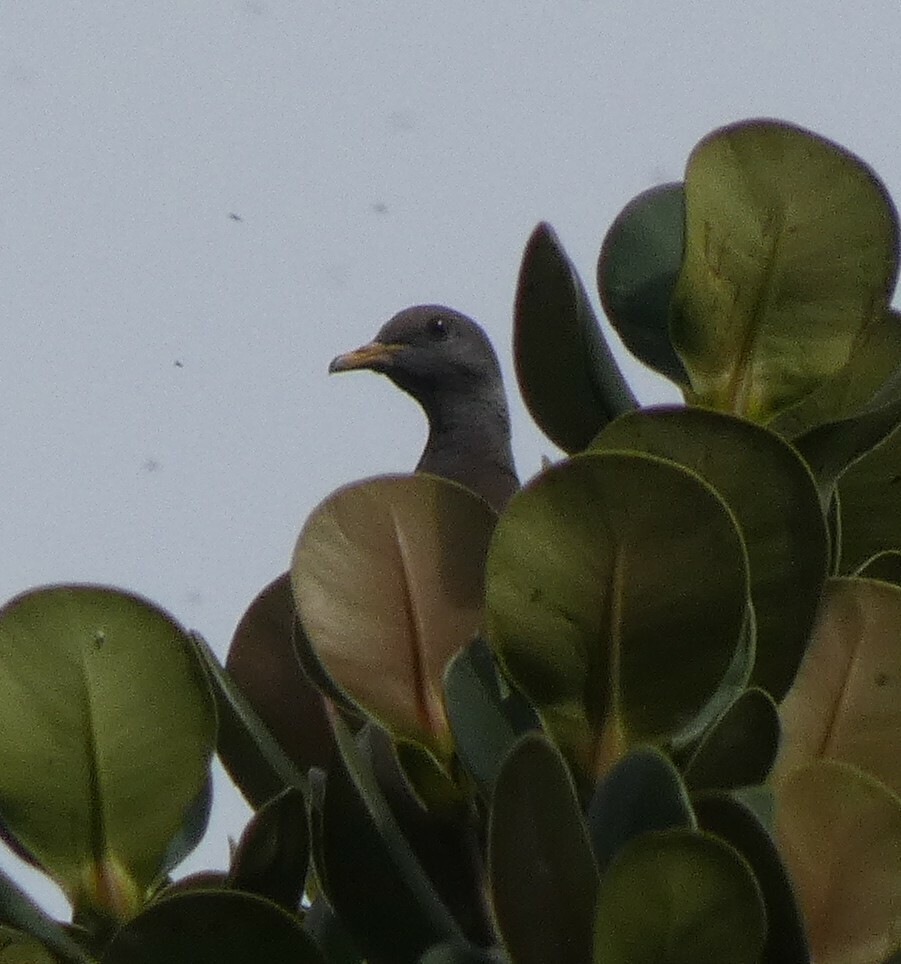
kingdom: Animalia
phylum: Chordata
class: Aves
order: Columbiformes
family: Columbidae
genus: Patagioenas
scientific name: Patagioenas fasciata
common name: Band-tailed pigeon
